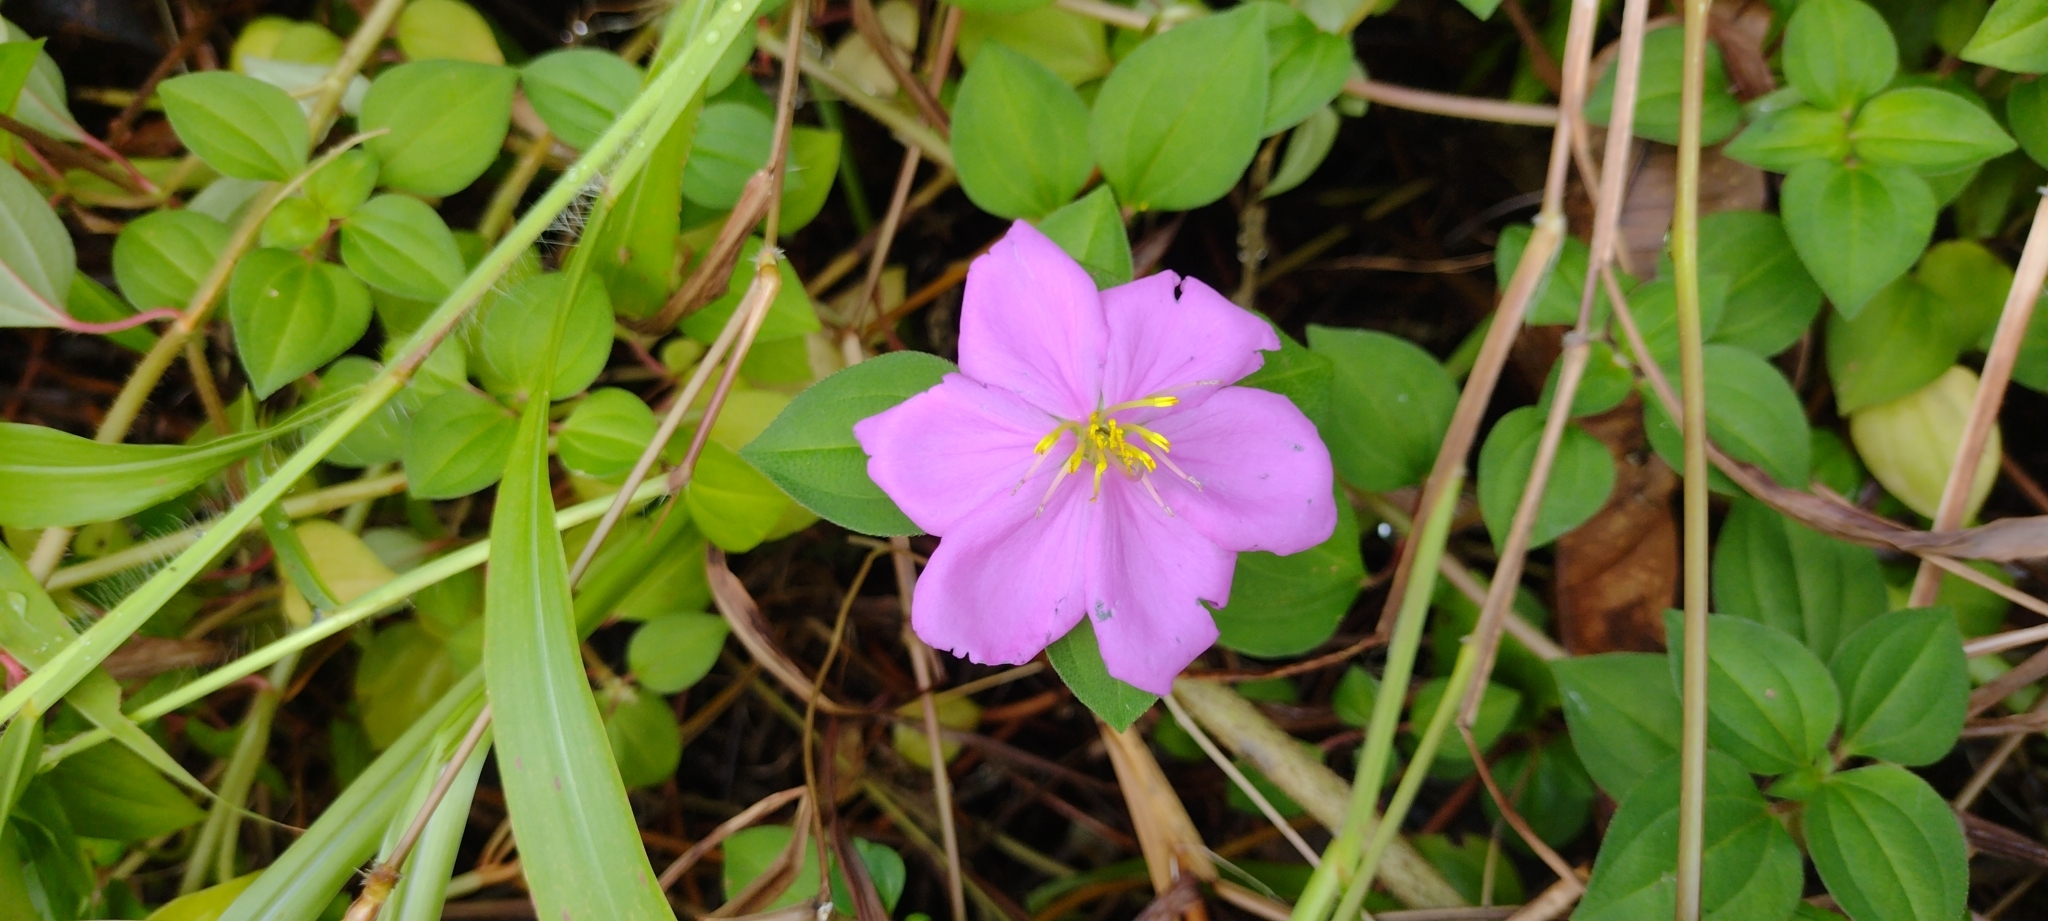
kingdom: Plantae
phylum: Tracheophyta
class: Magnoliopsida
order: Myrtales
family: Melastomataceae
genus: Heterotis
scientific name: Heterotis rotundifolia
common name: Pinklady
